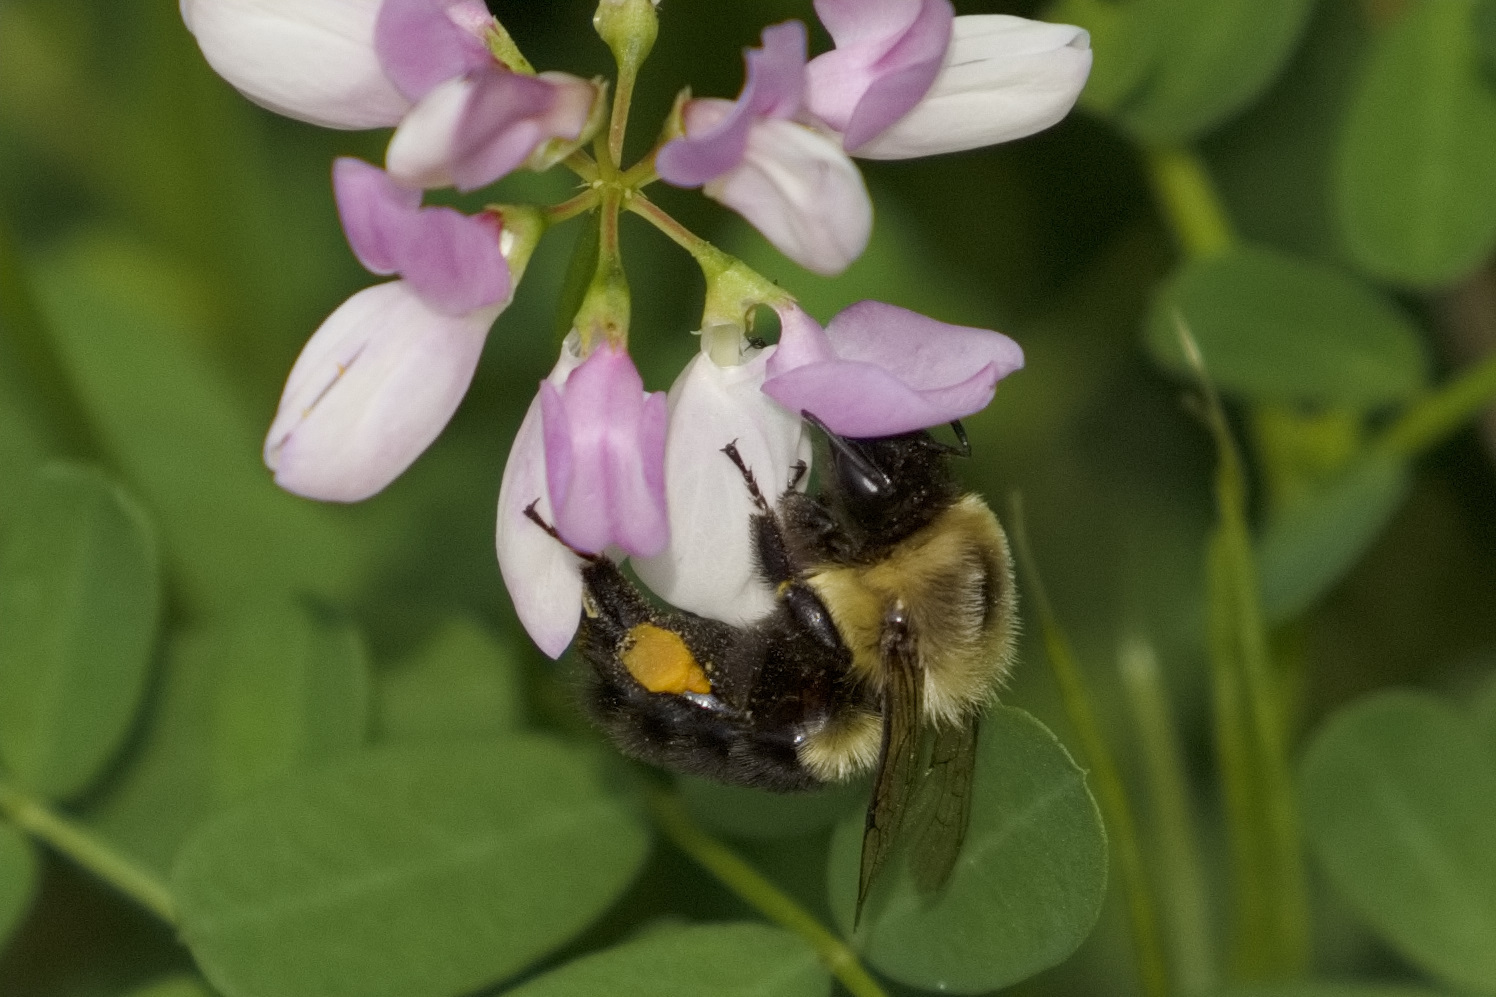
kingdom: Animalia
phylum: Arthropoda
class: Insecta
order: Hymenoptera
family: Apidae
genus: Bombus
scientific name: Bombus impatiens
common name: Common eastern bumble bee
